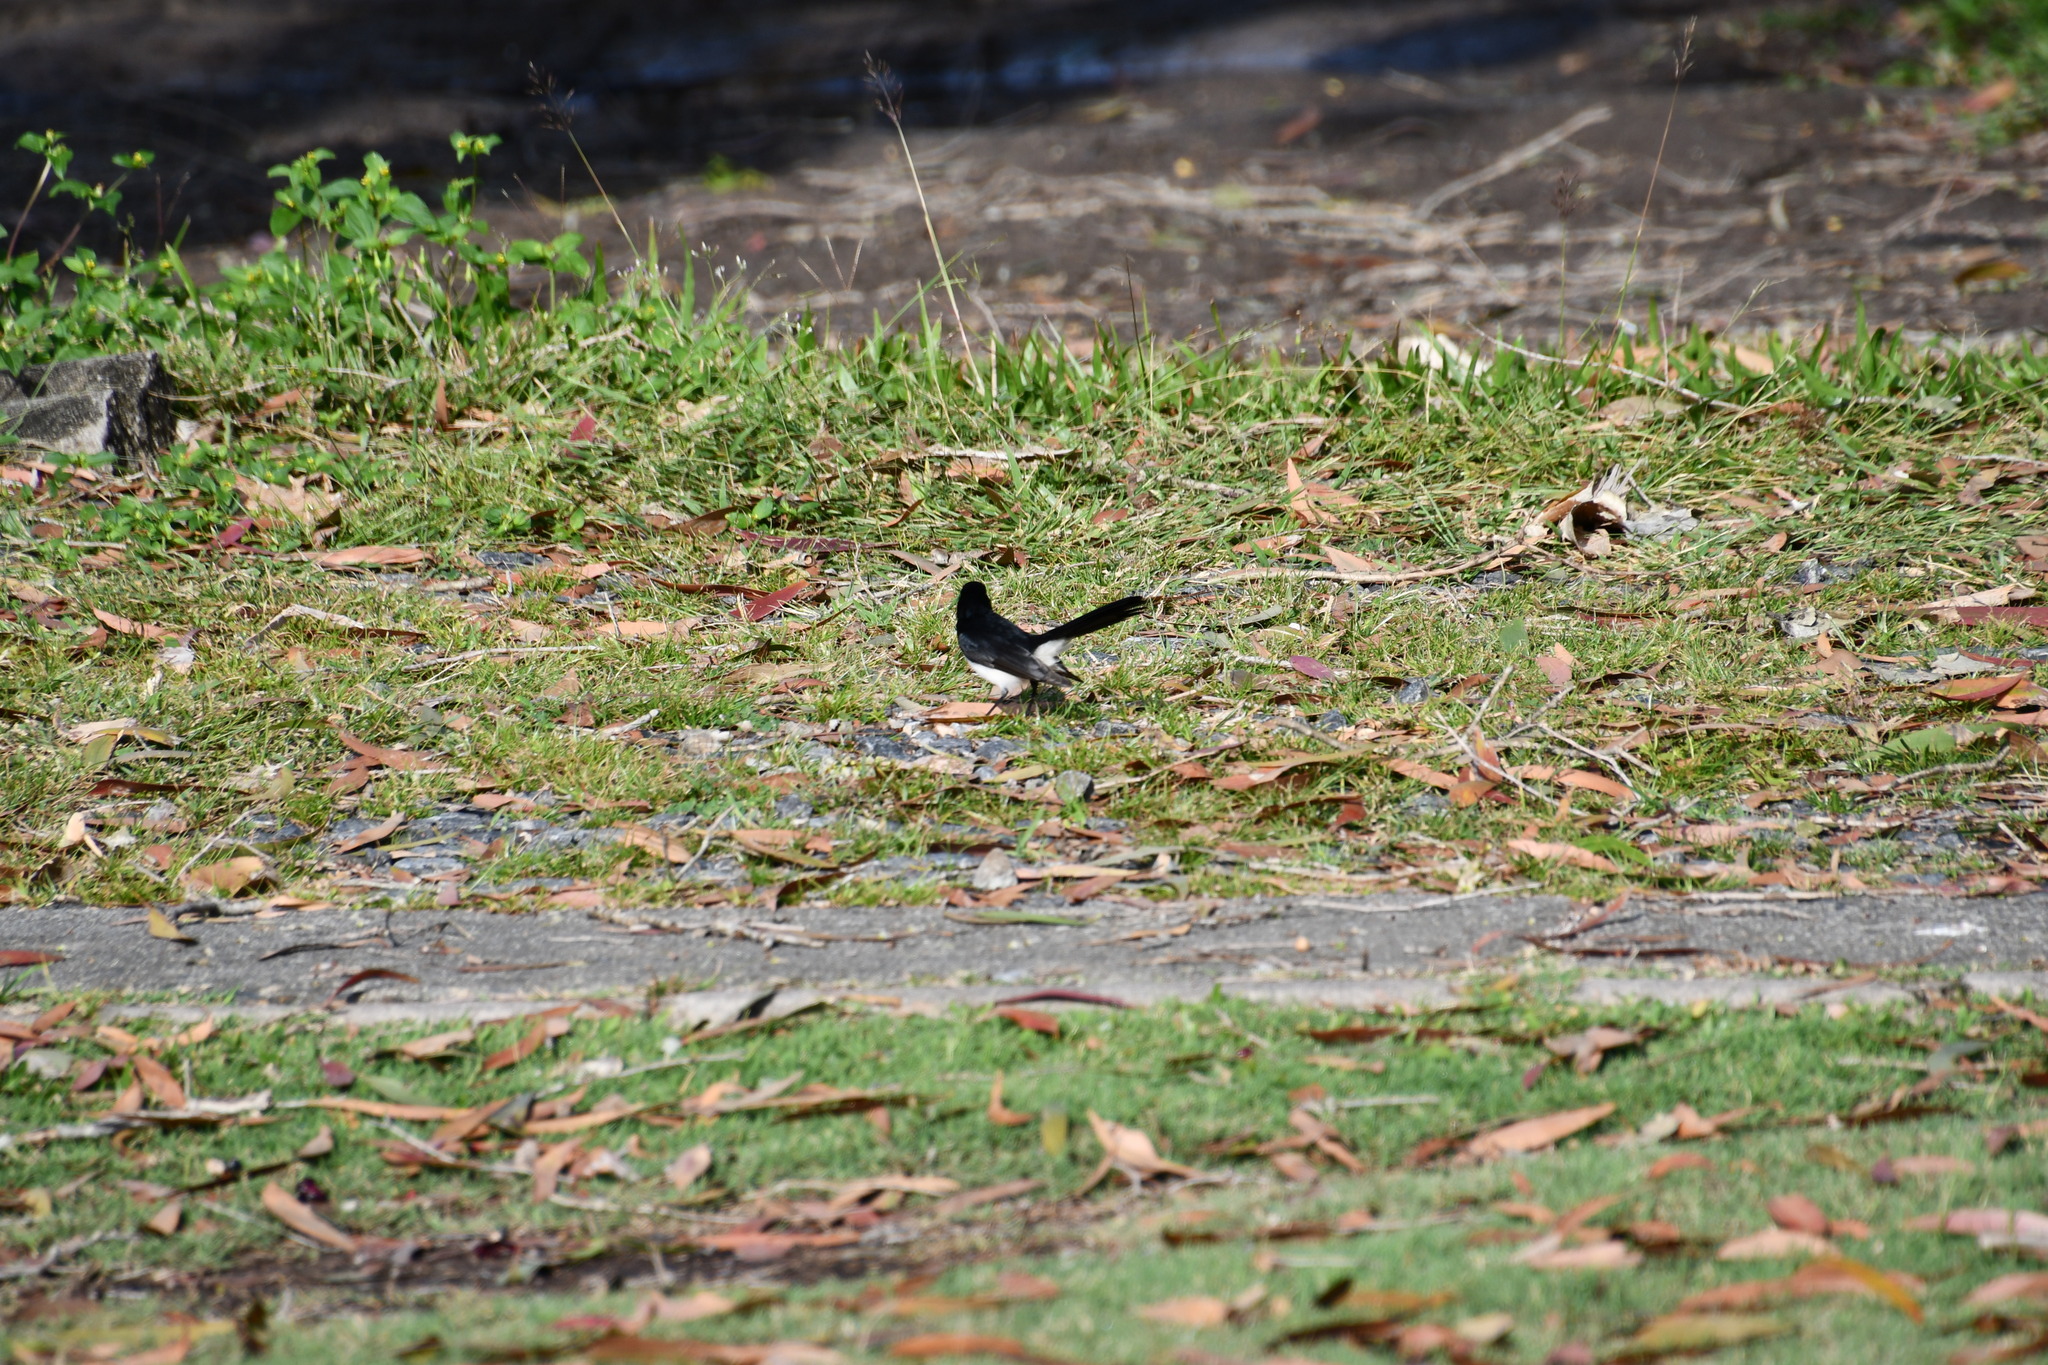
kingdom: Animalia
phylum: Chordata
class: Aves
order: Passeriformes
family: Rhipiduridae
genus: Rhipidura
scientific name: Rhipidura leucophrys
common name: Willie wagtail
